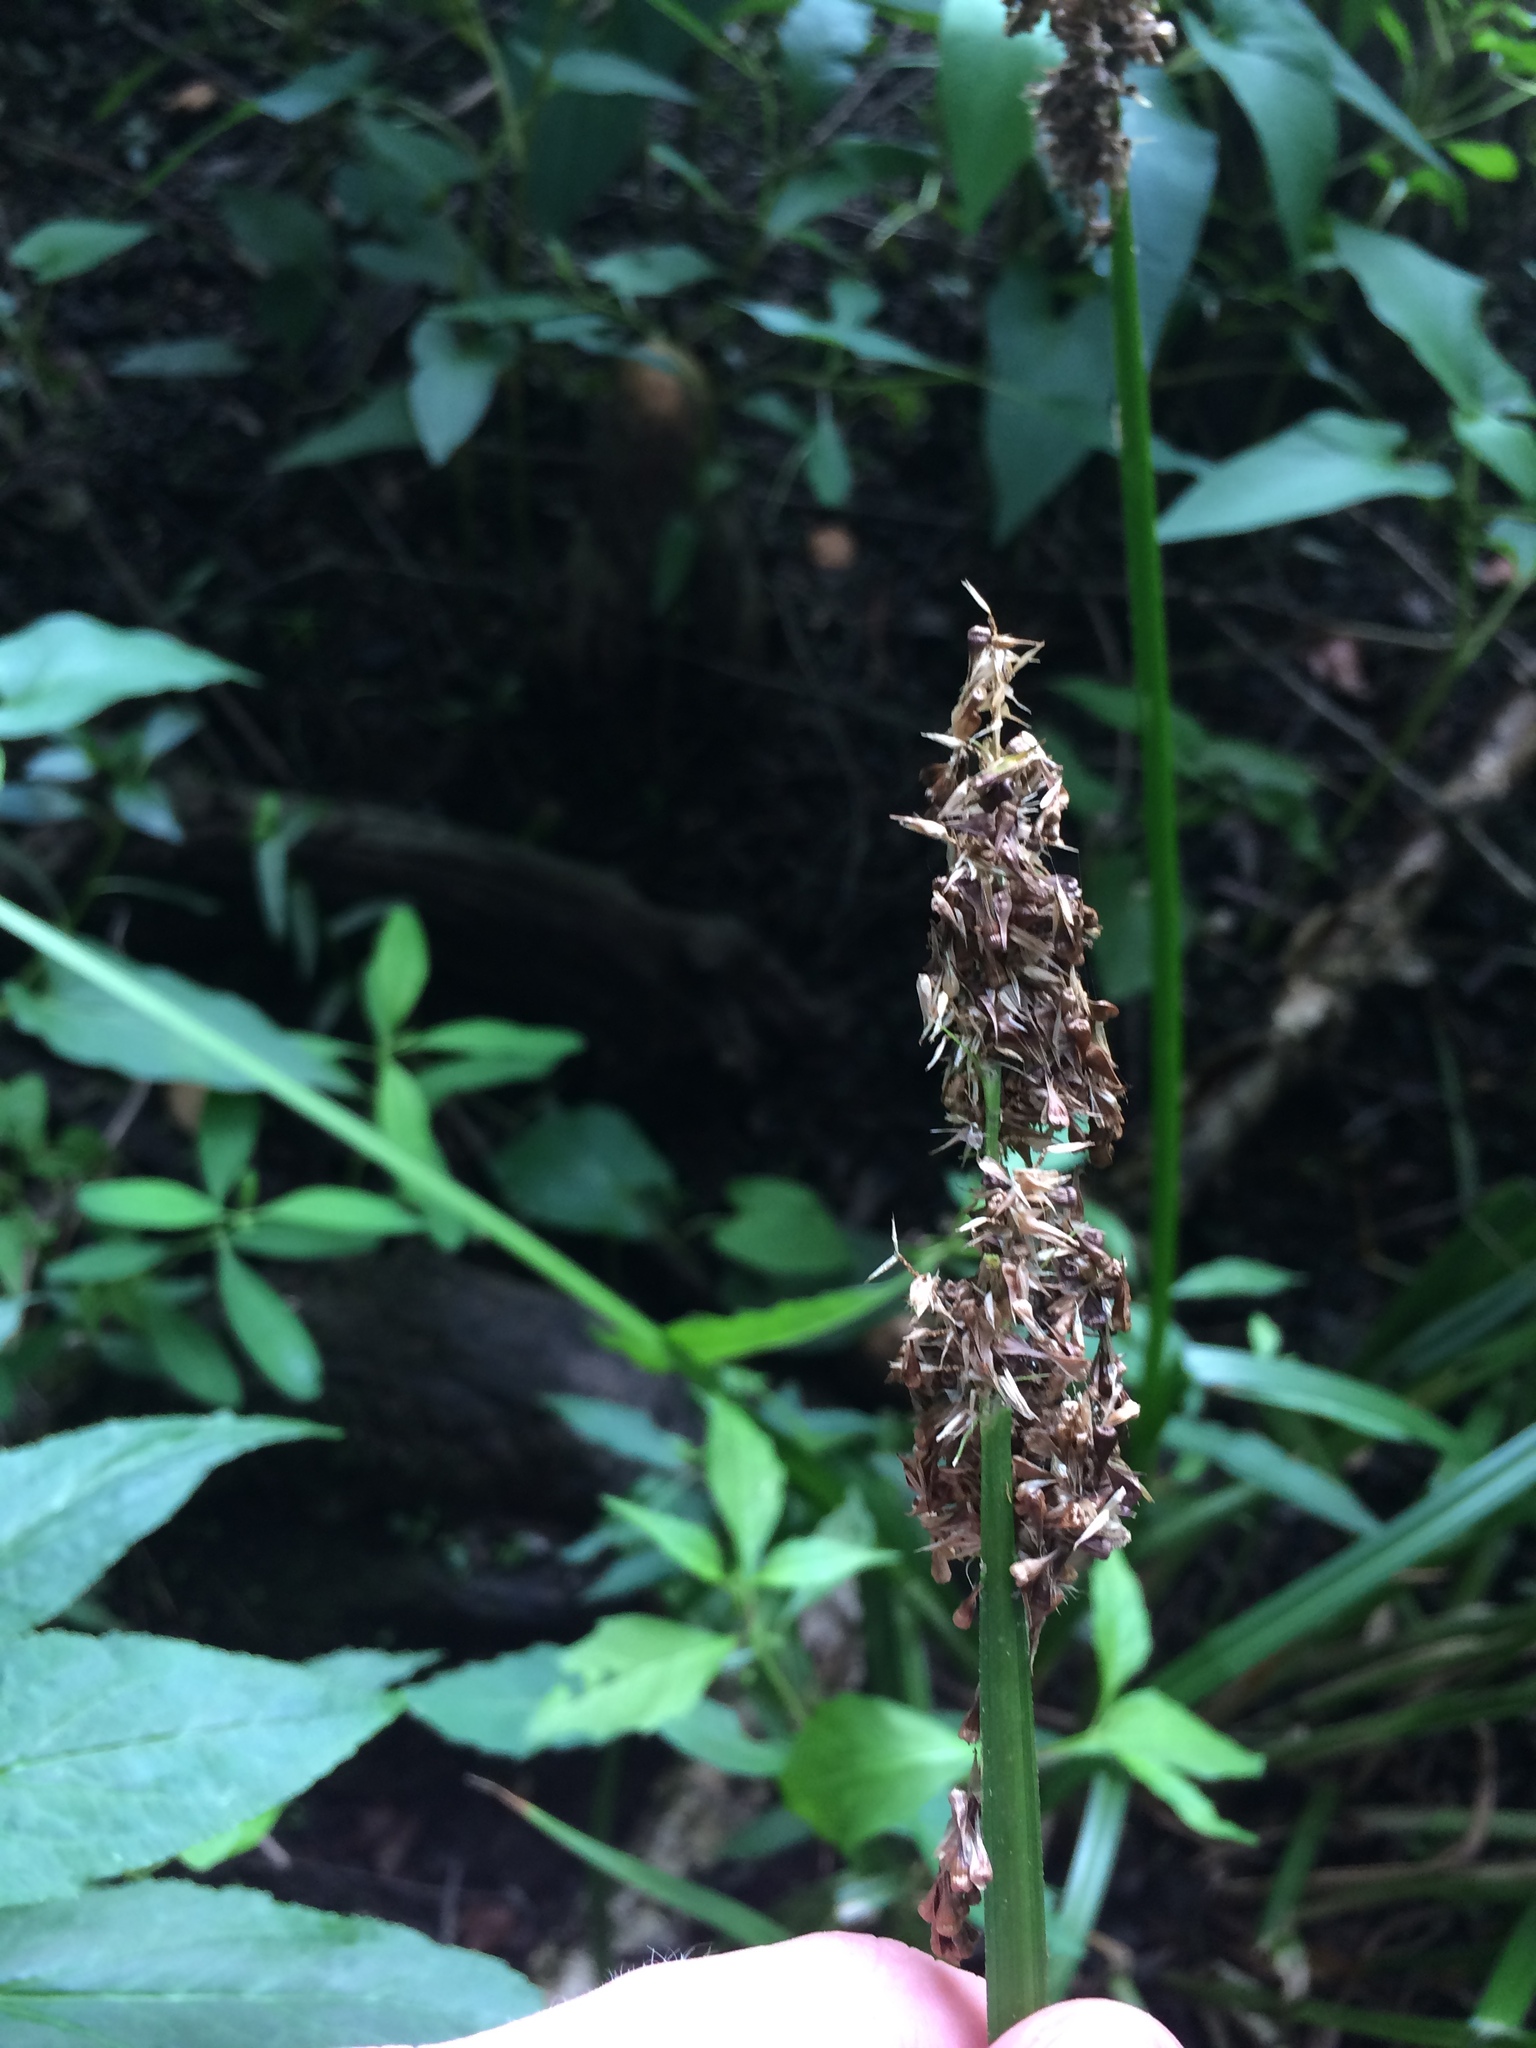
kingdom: Plantae
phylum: Tracheophyta
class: Liliopsida
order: Poales
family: Cyperaceae
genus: Carex
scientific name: Carex stipata
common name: Awl-fruited sedge
